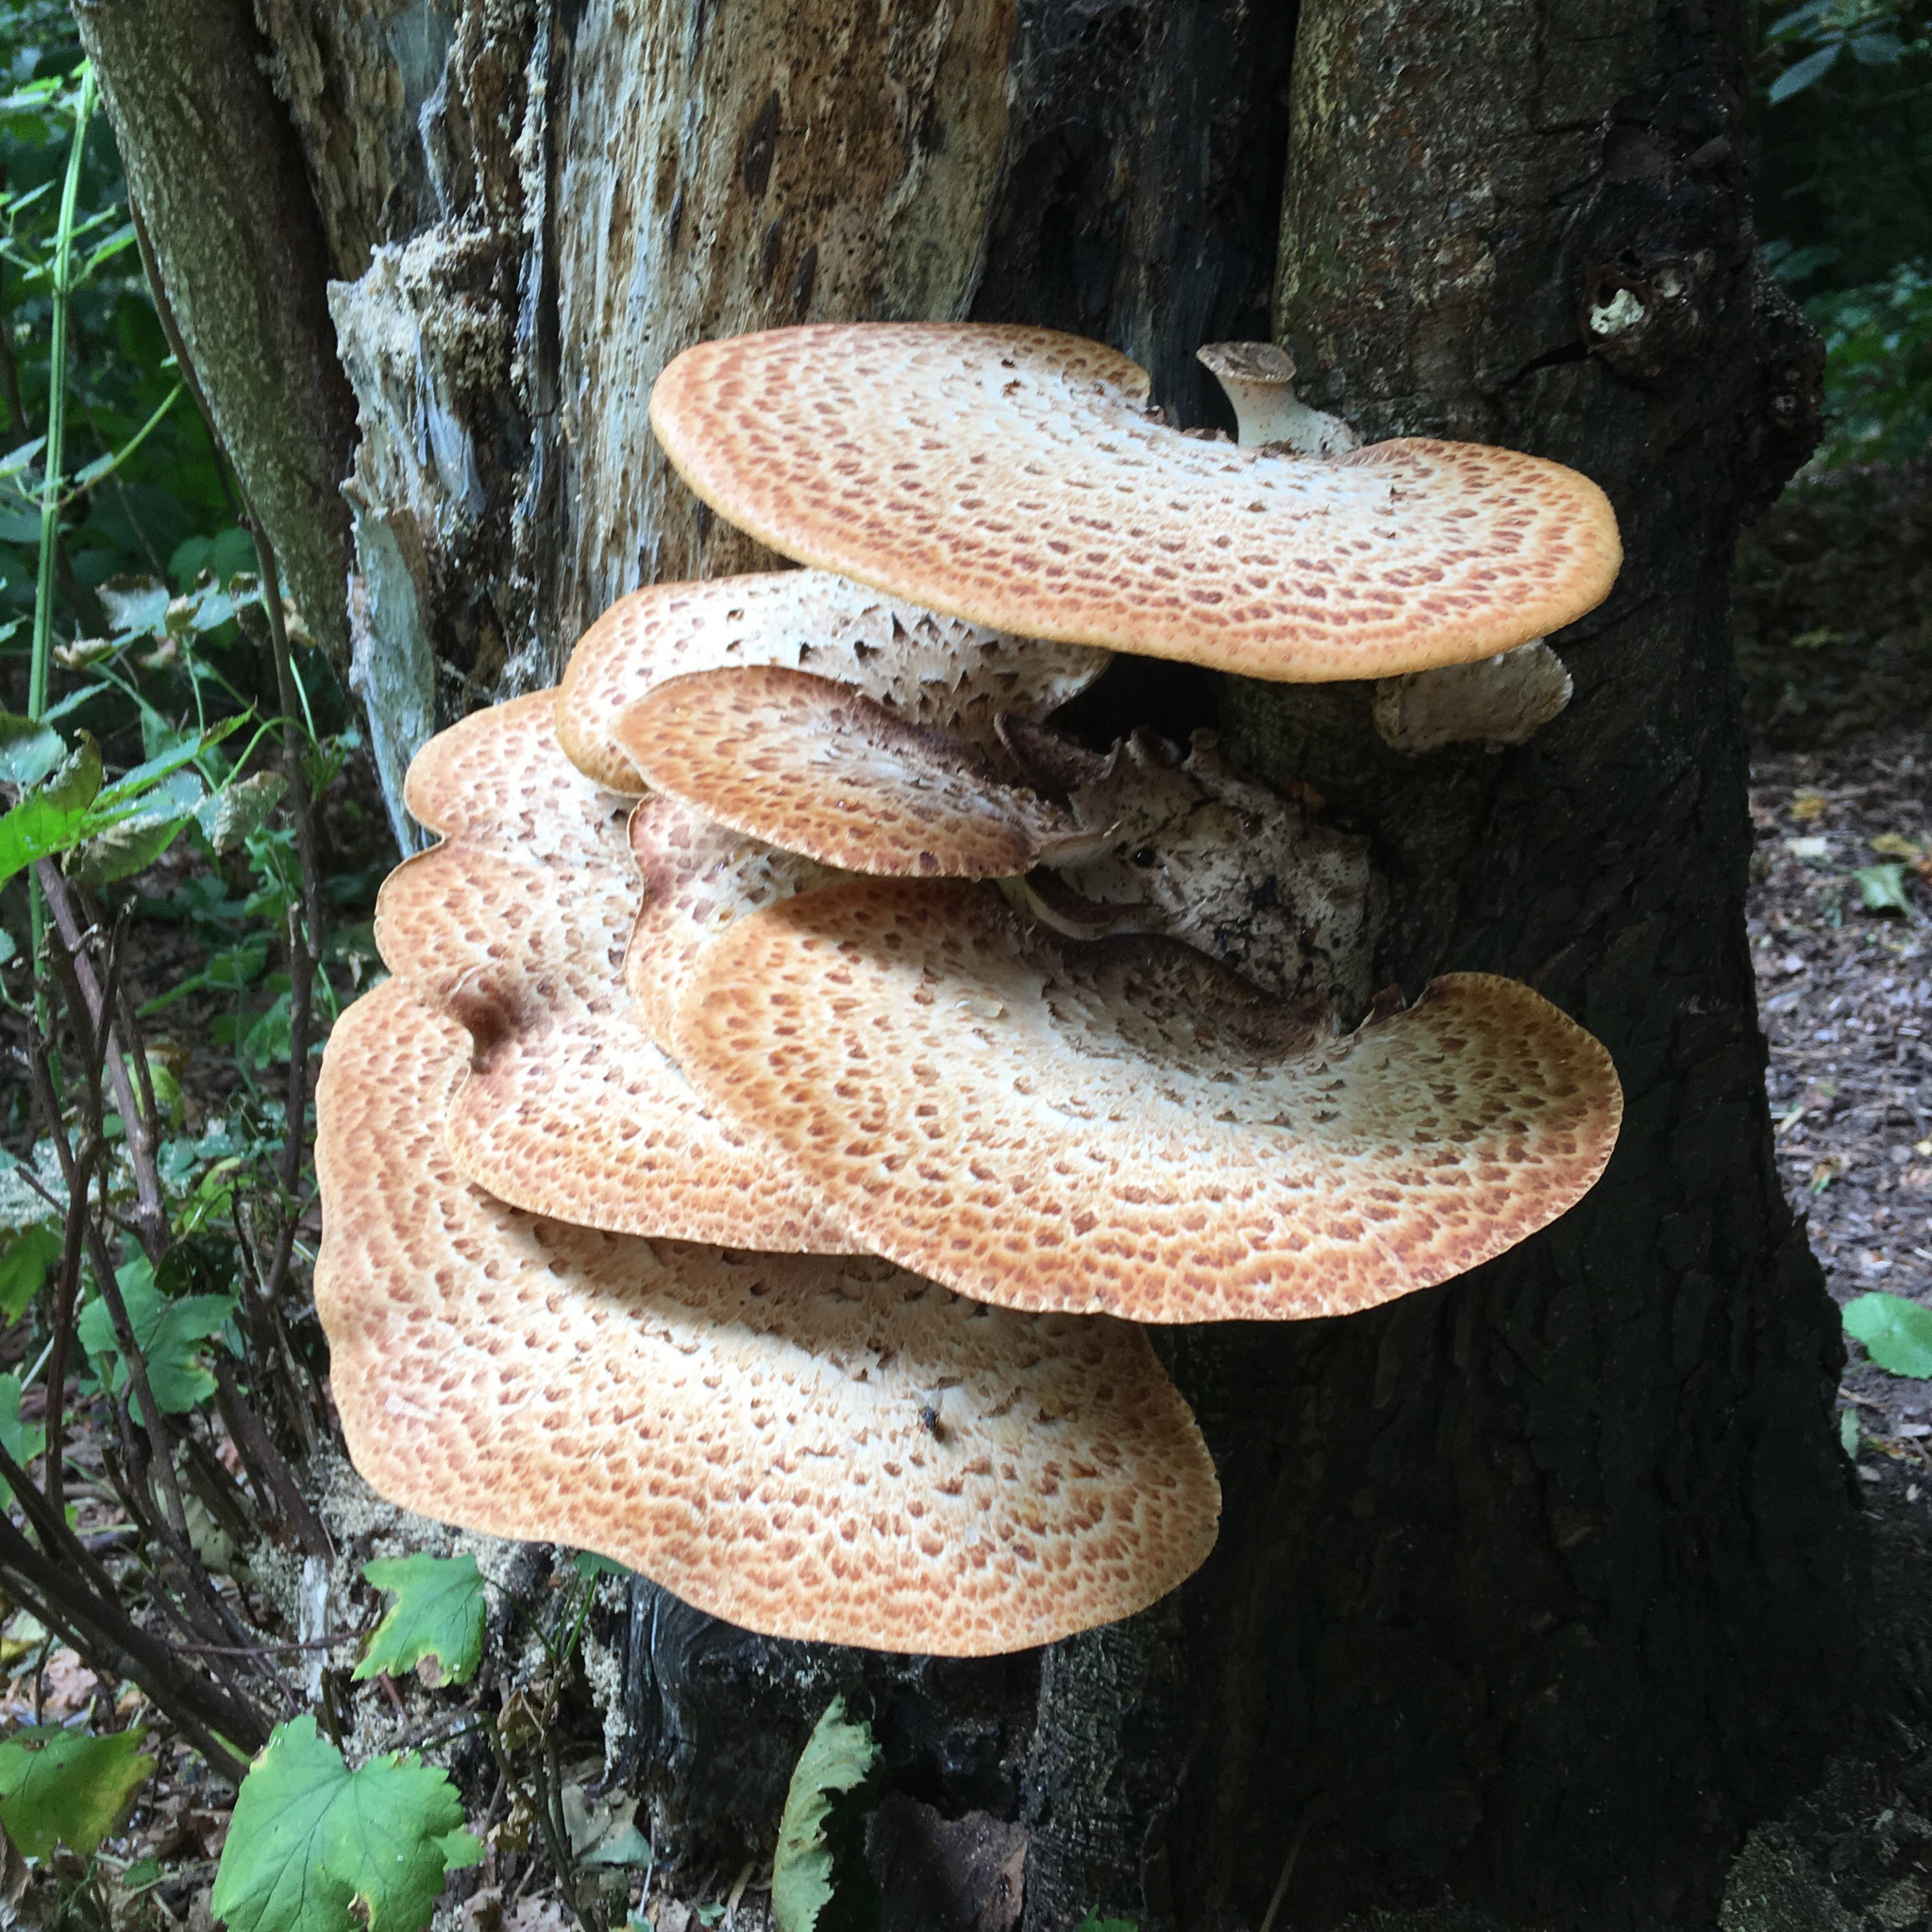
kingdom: Fungi
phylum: Basidiomycota
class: Agaricomycetes
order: Polyporales
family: Polyporaceae
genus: Cerioporus
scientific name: Cerioporus squamosus
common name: Dryad's saddle
